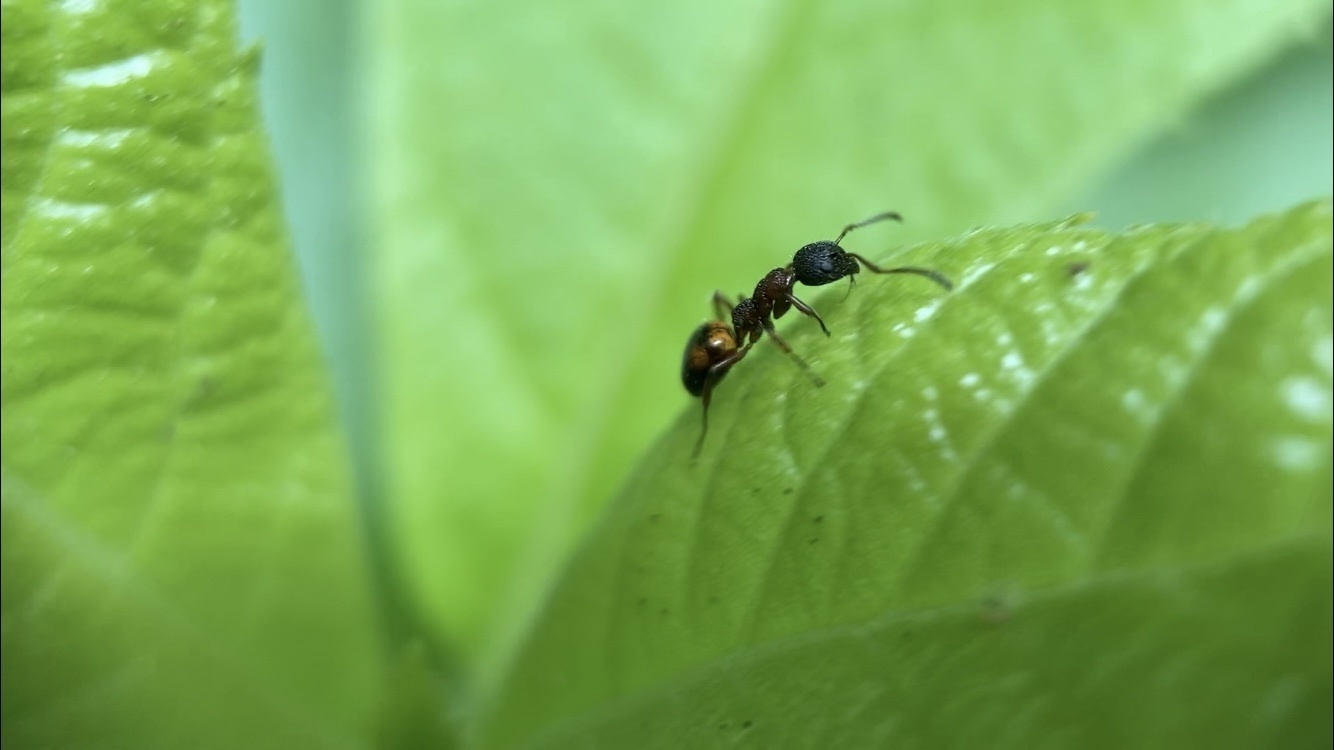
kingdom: Animalia
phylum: Arthropoda
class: Insecta
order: Hymenoptera
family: Formicidae
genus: Dolichoderus
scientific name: Dolichoderus plagiatus
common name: Mottled dolichoderus
